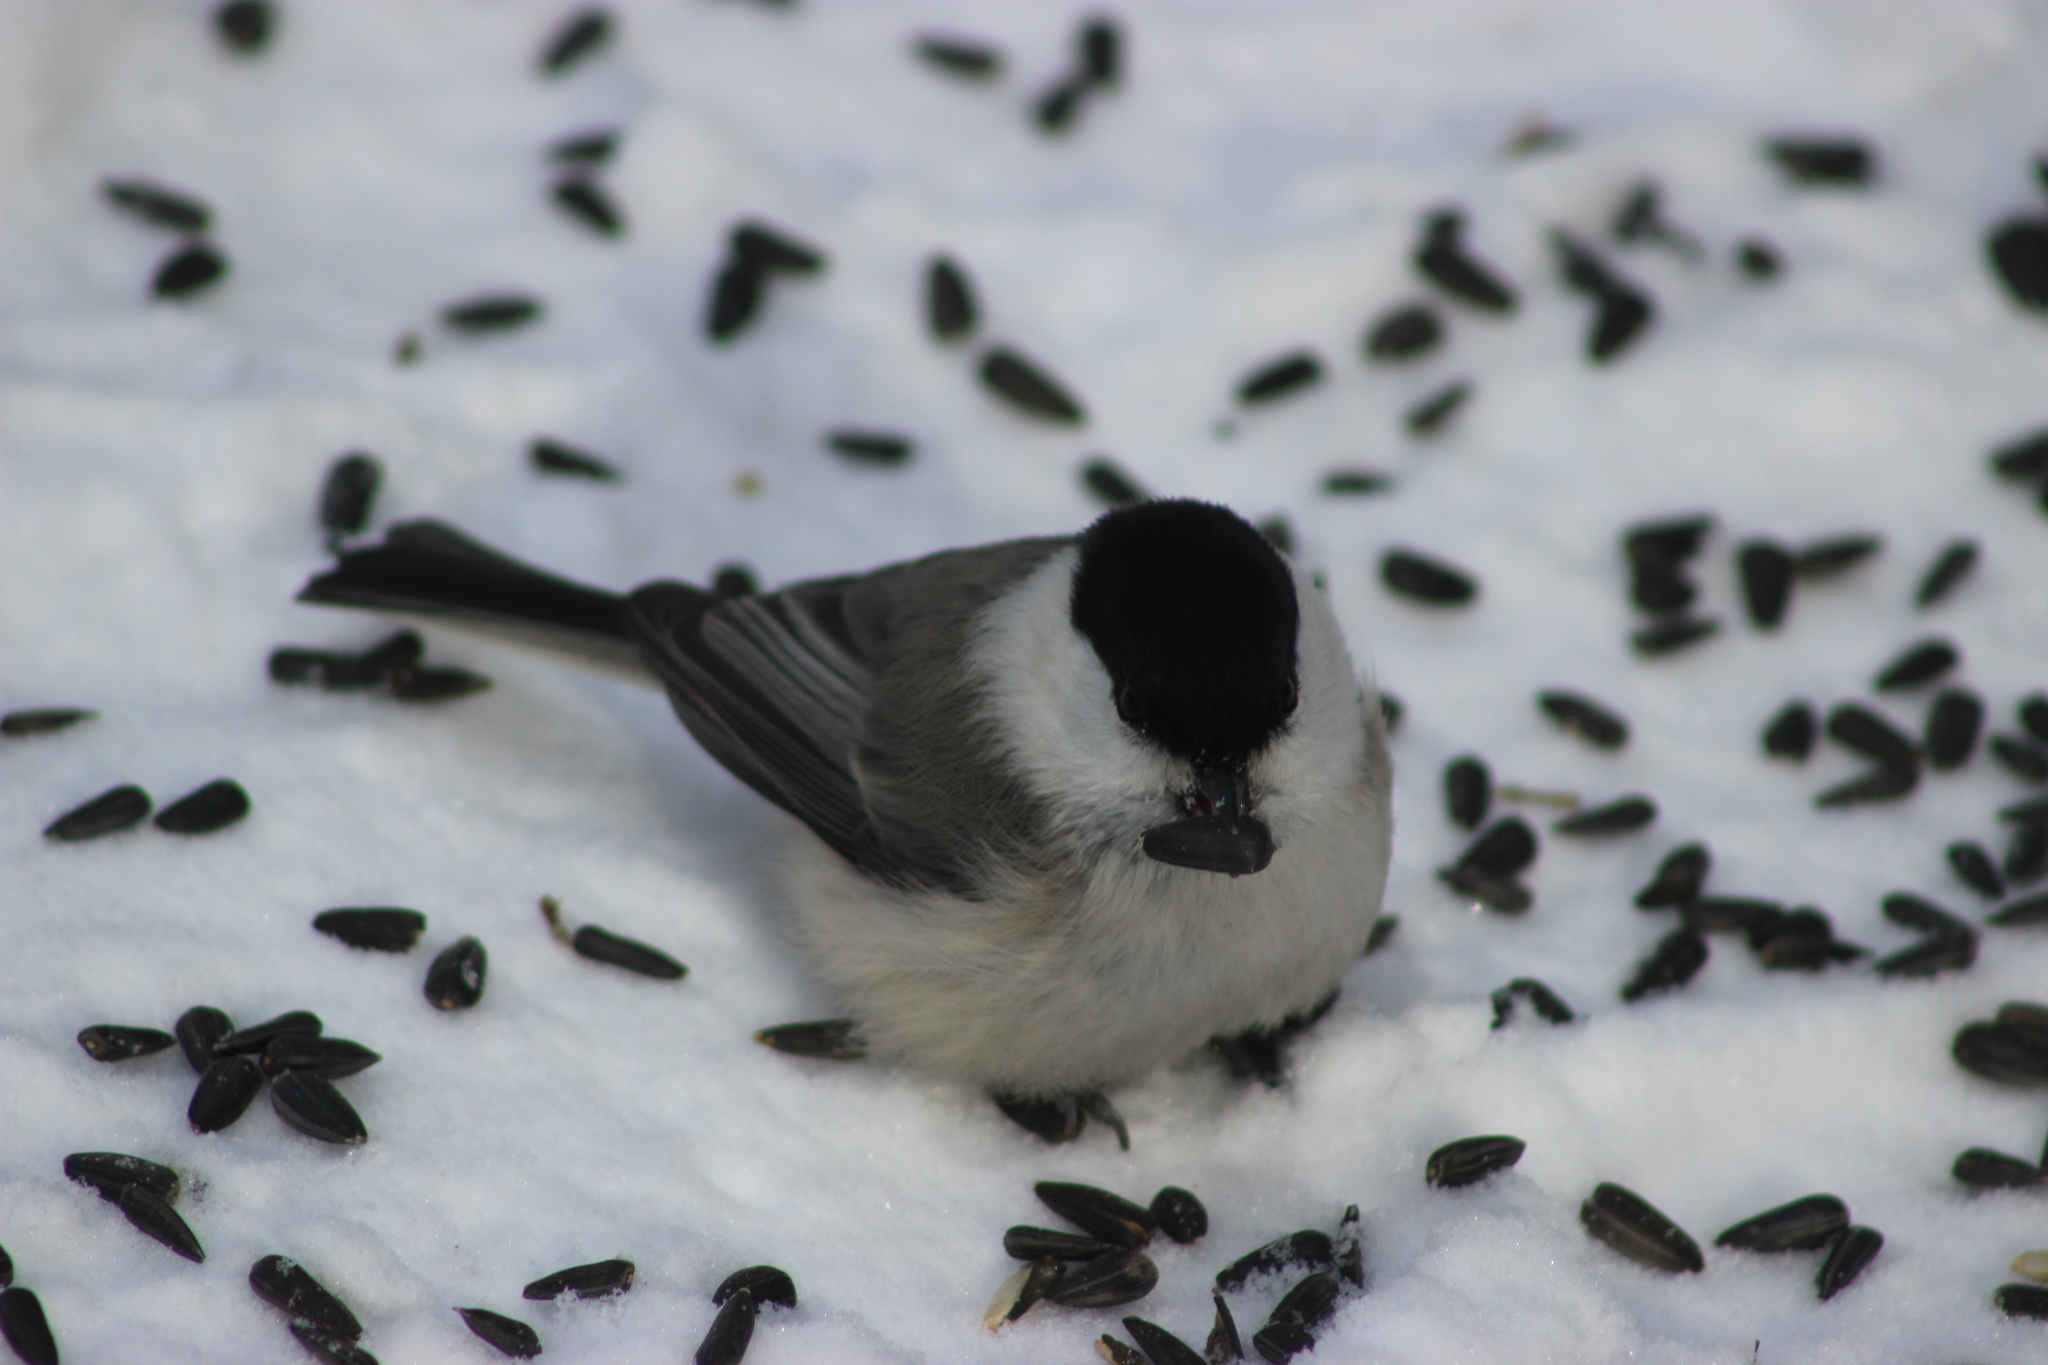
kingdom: Animalia
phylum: Chordata
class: Aves
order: Passeriformes
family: Paridae
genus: Poecile
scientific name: Poecile montanus
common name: Willow tit
